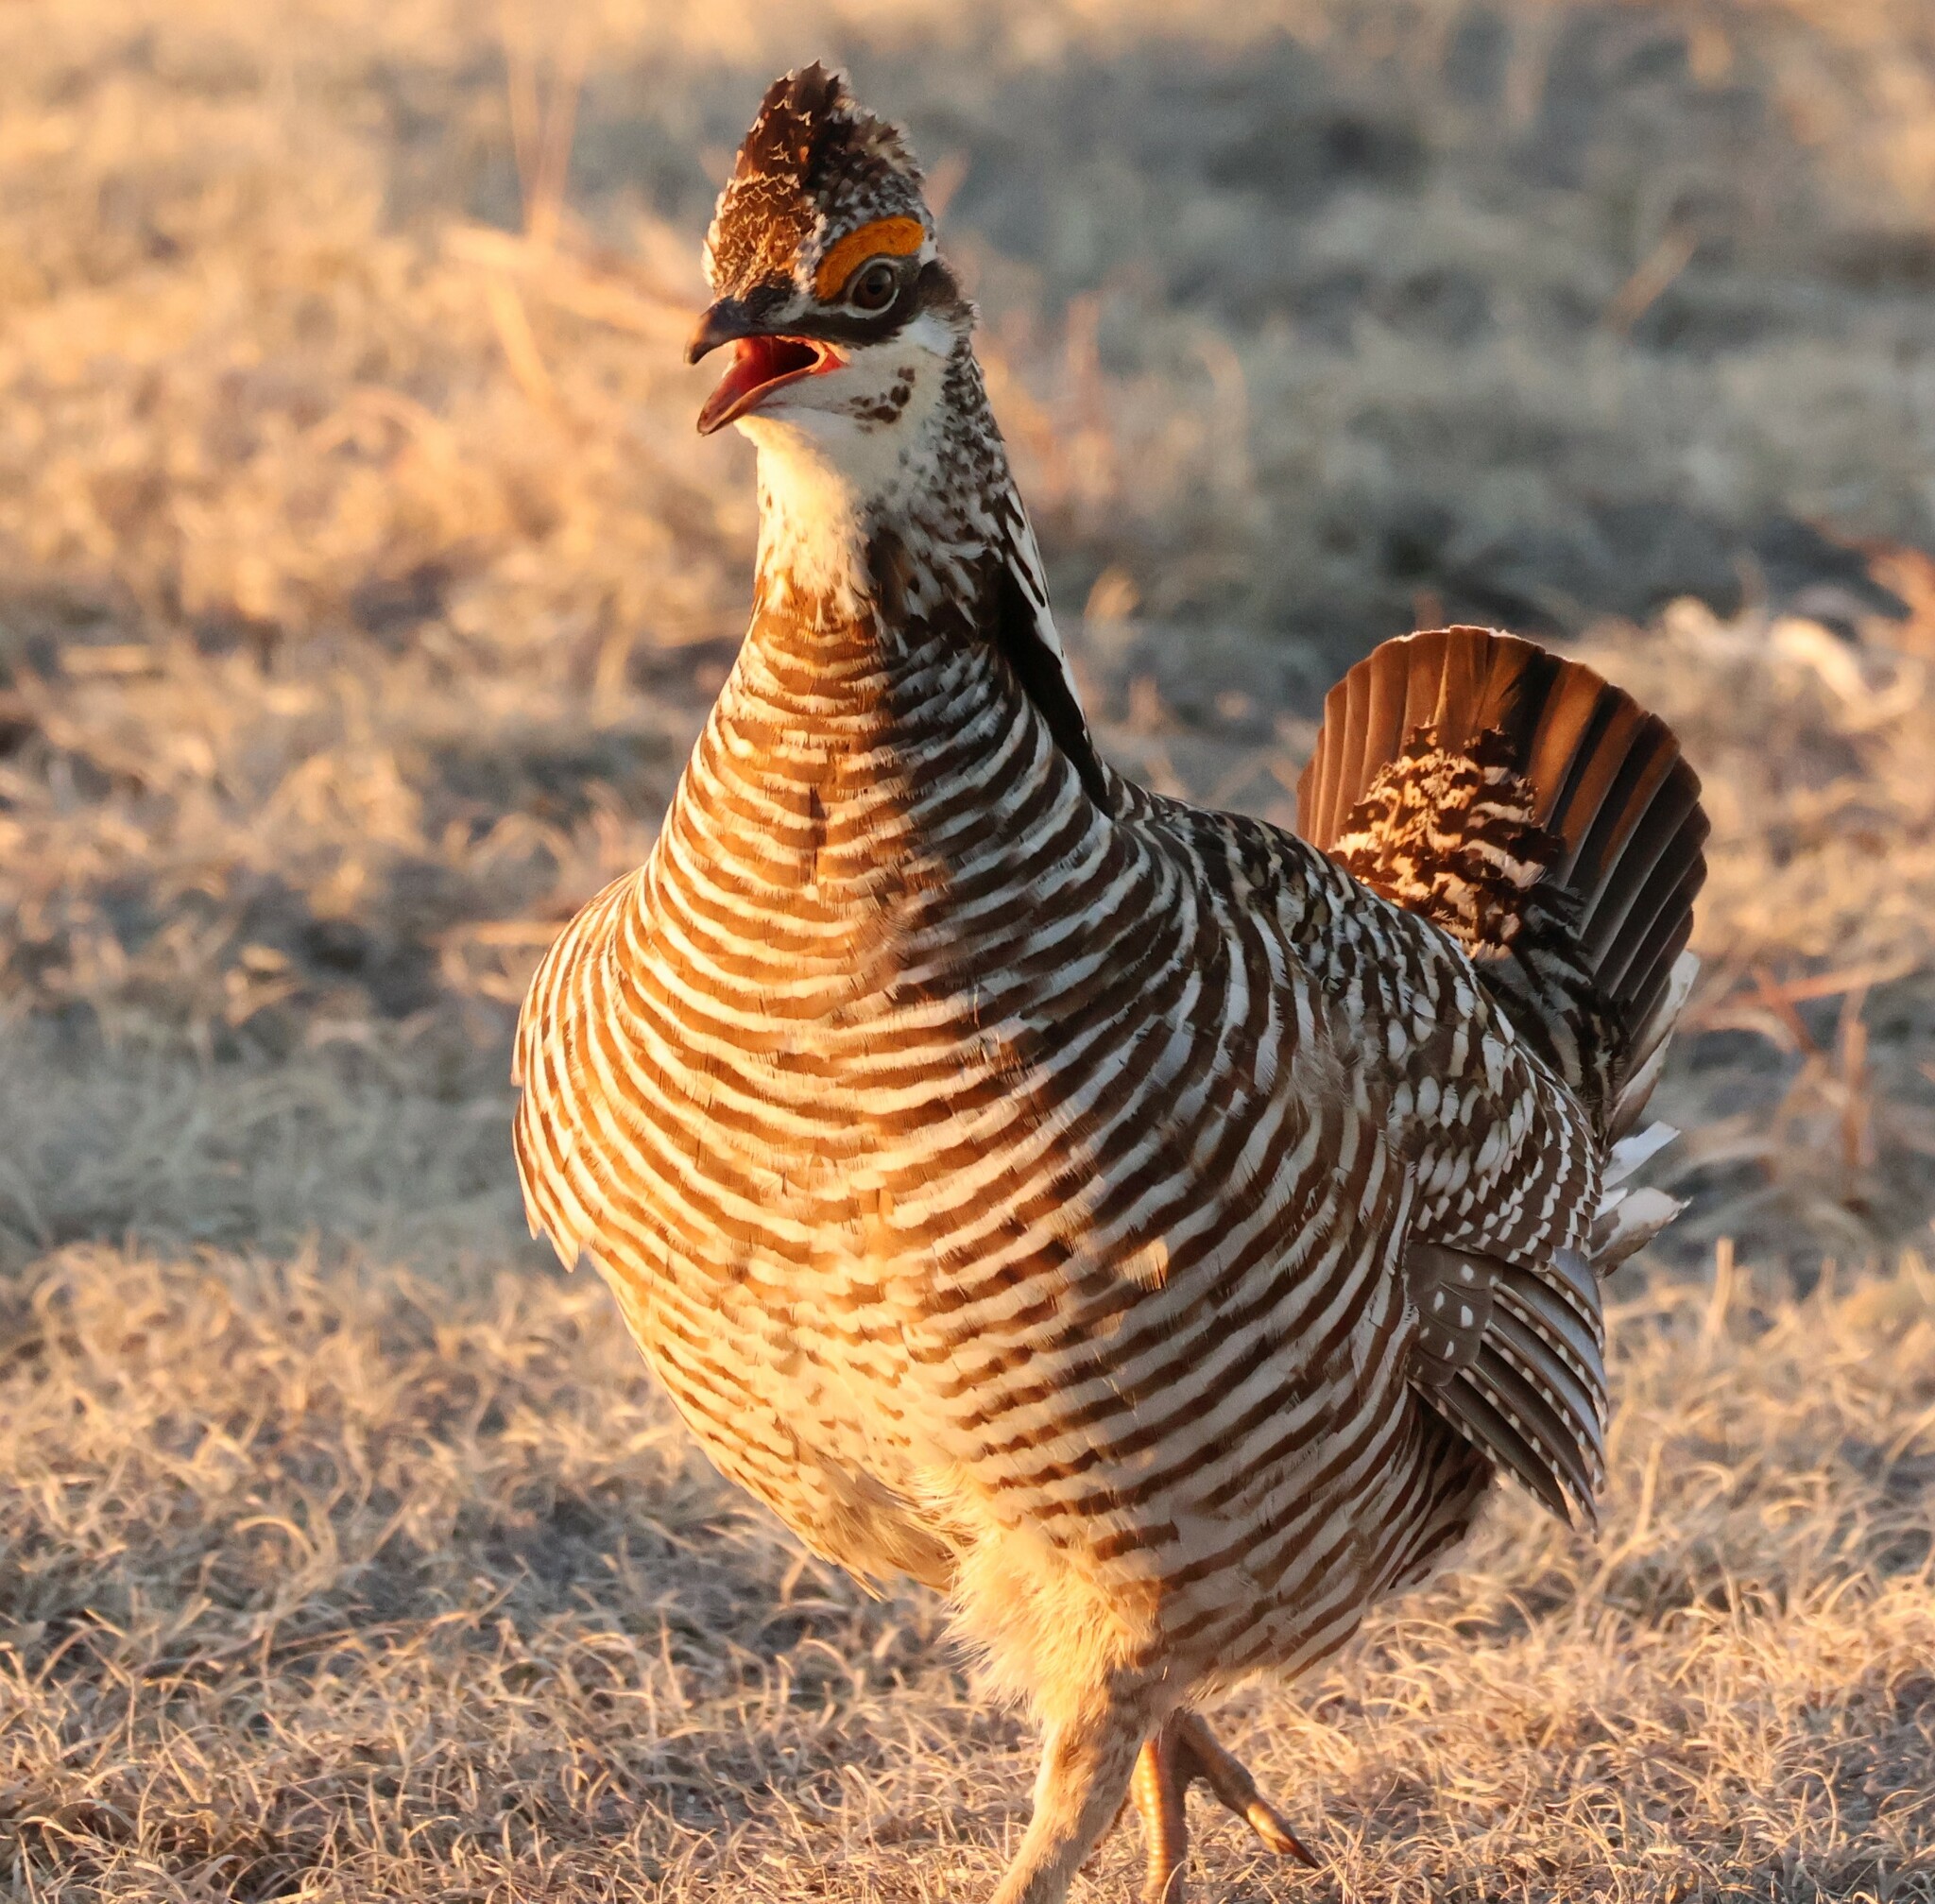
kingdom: Animalia
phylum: Chordata
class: Aves
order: Galliformes
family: Phasianidae
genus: Tympanuchus
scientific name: Tympanuchus cupido
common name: Greater prairie chicken
